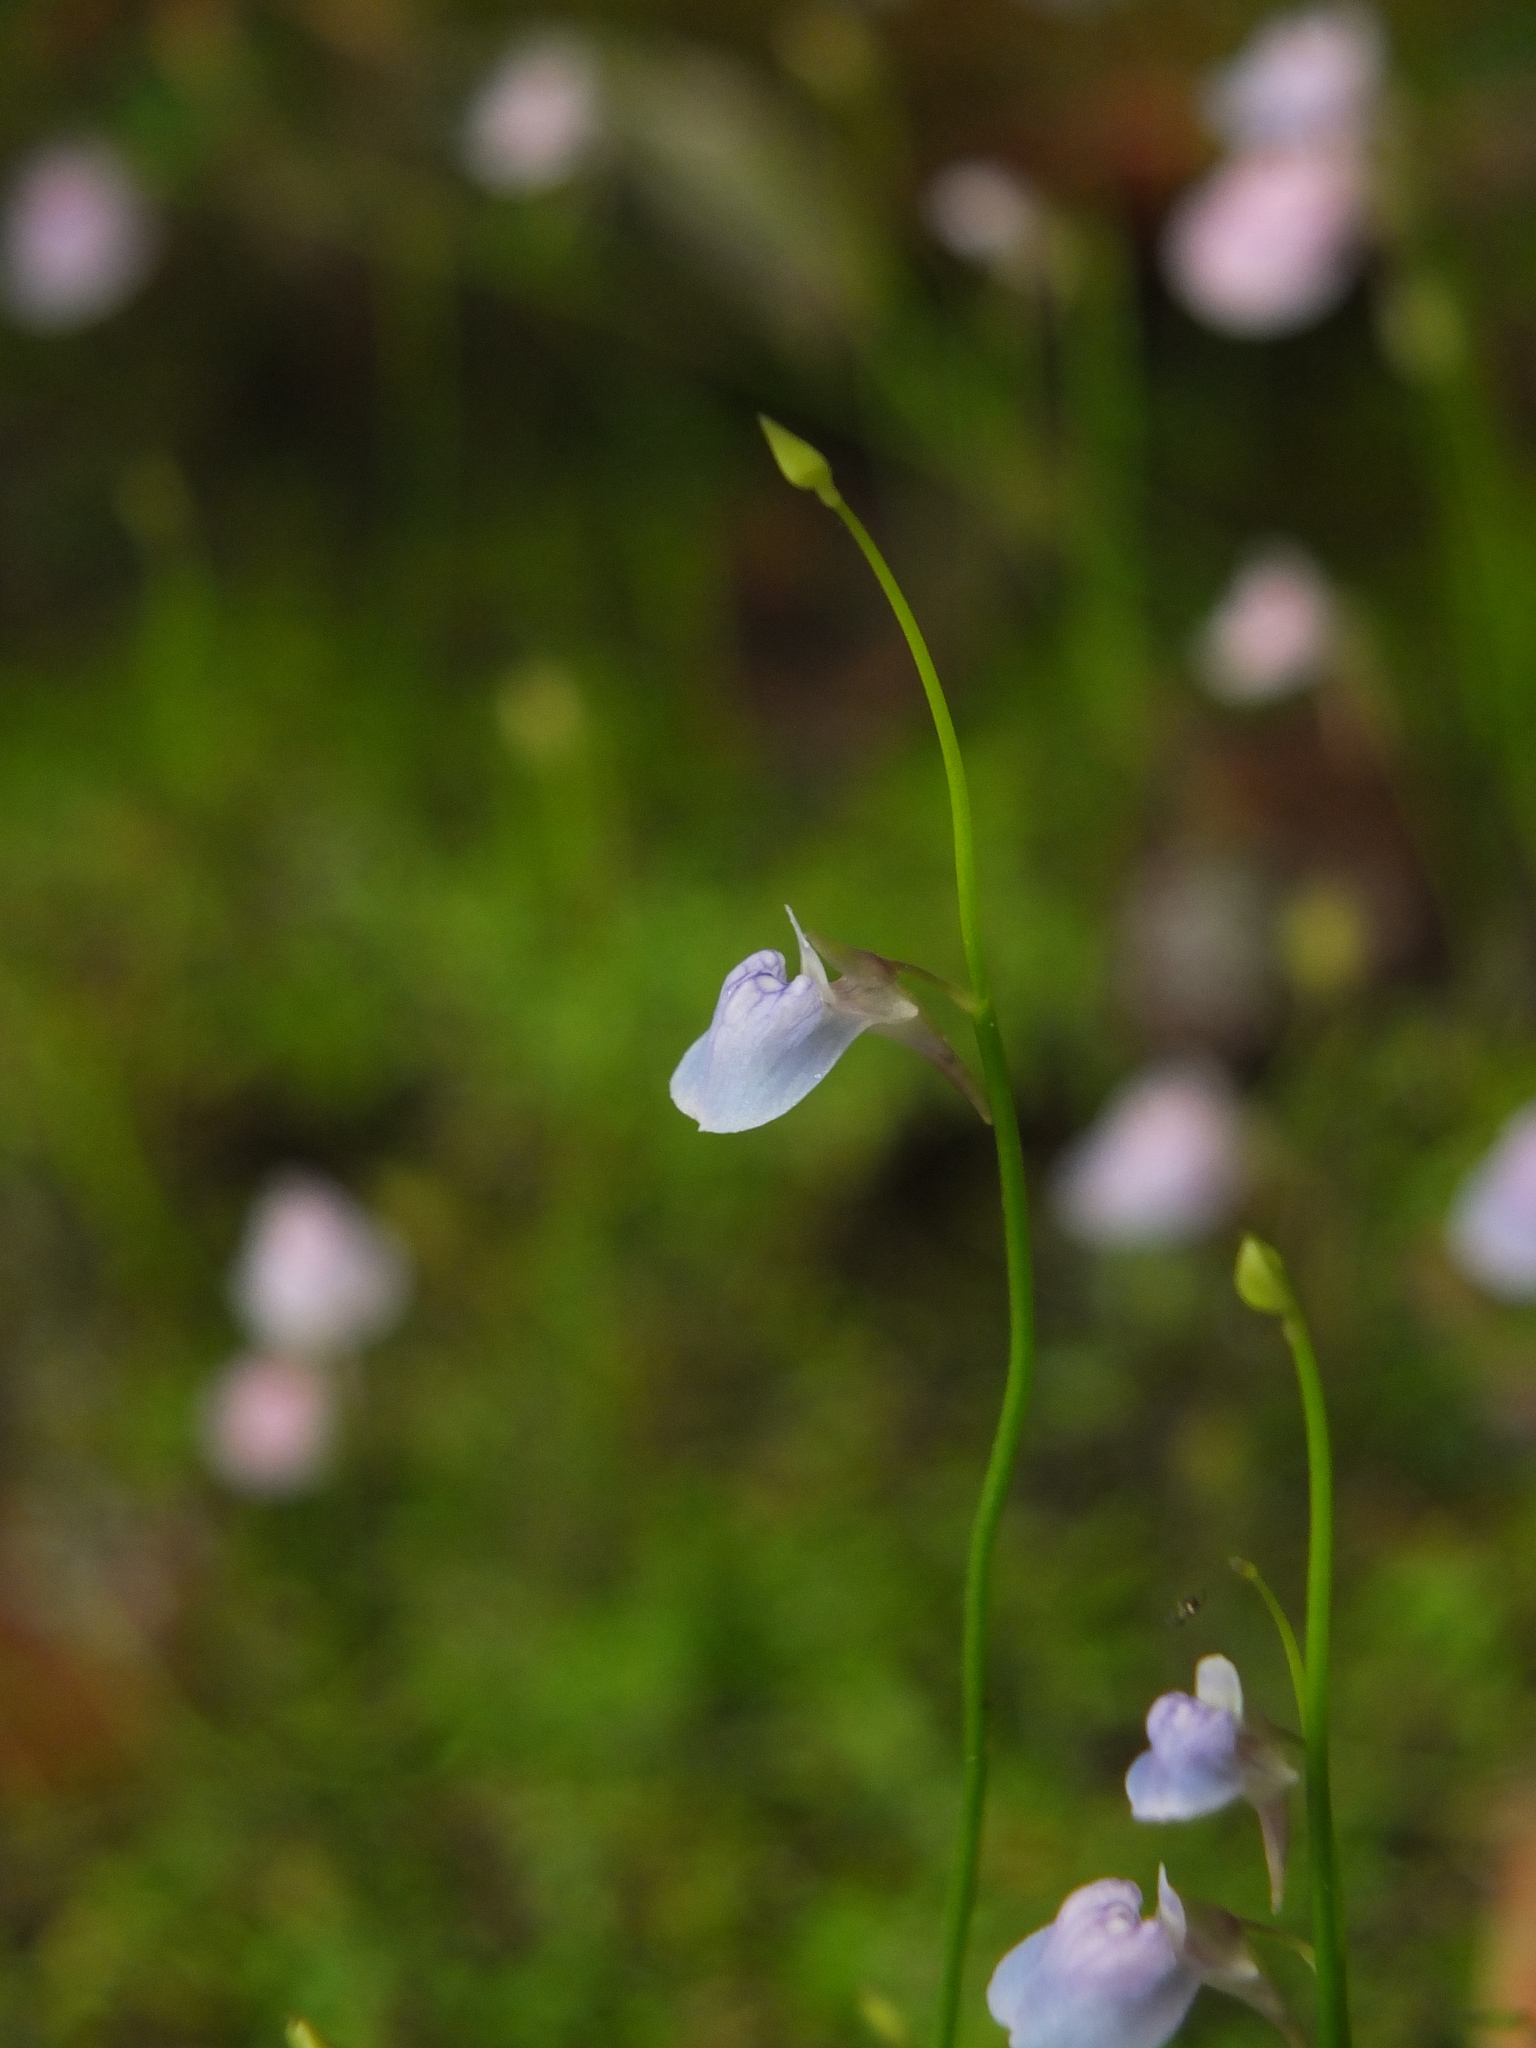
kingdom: Plantae
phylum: Tracheophyta
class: Magnoliopsida
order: Lamiales
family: Lentibulariaceae
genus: Utricularia
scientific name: Utricularia graminifolia
